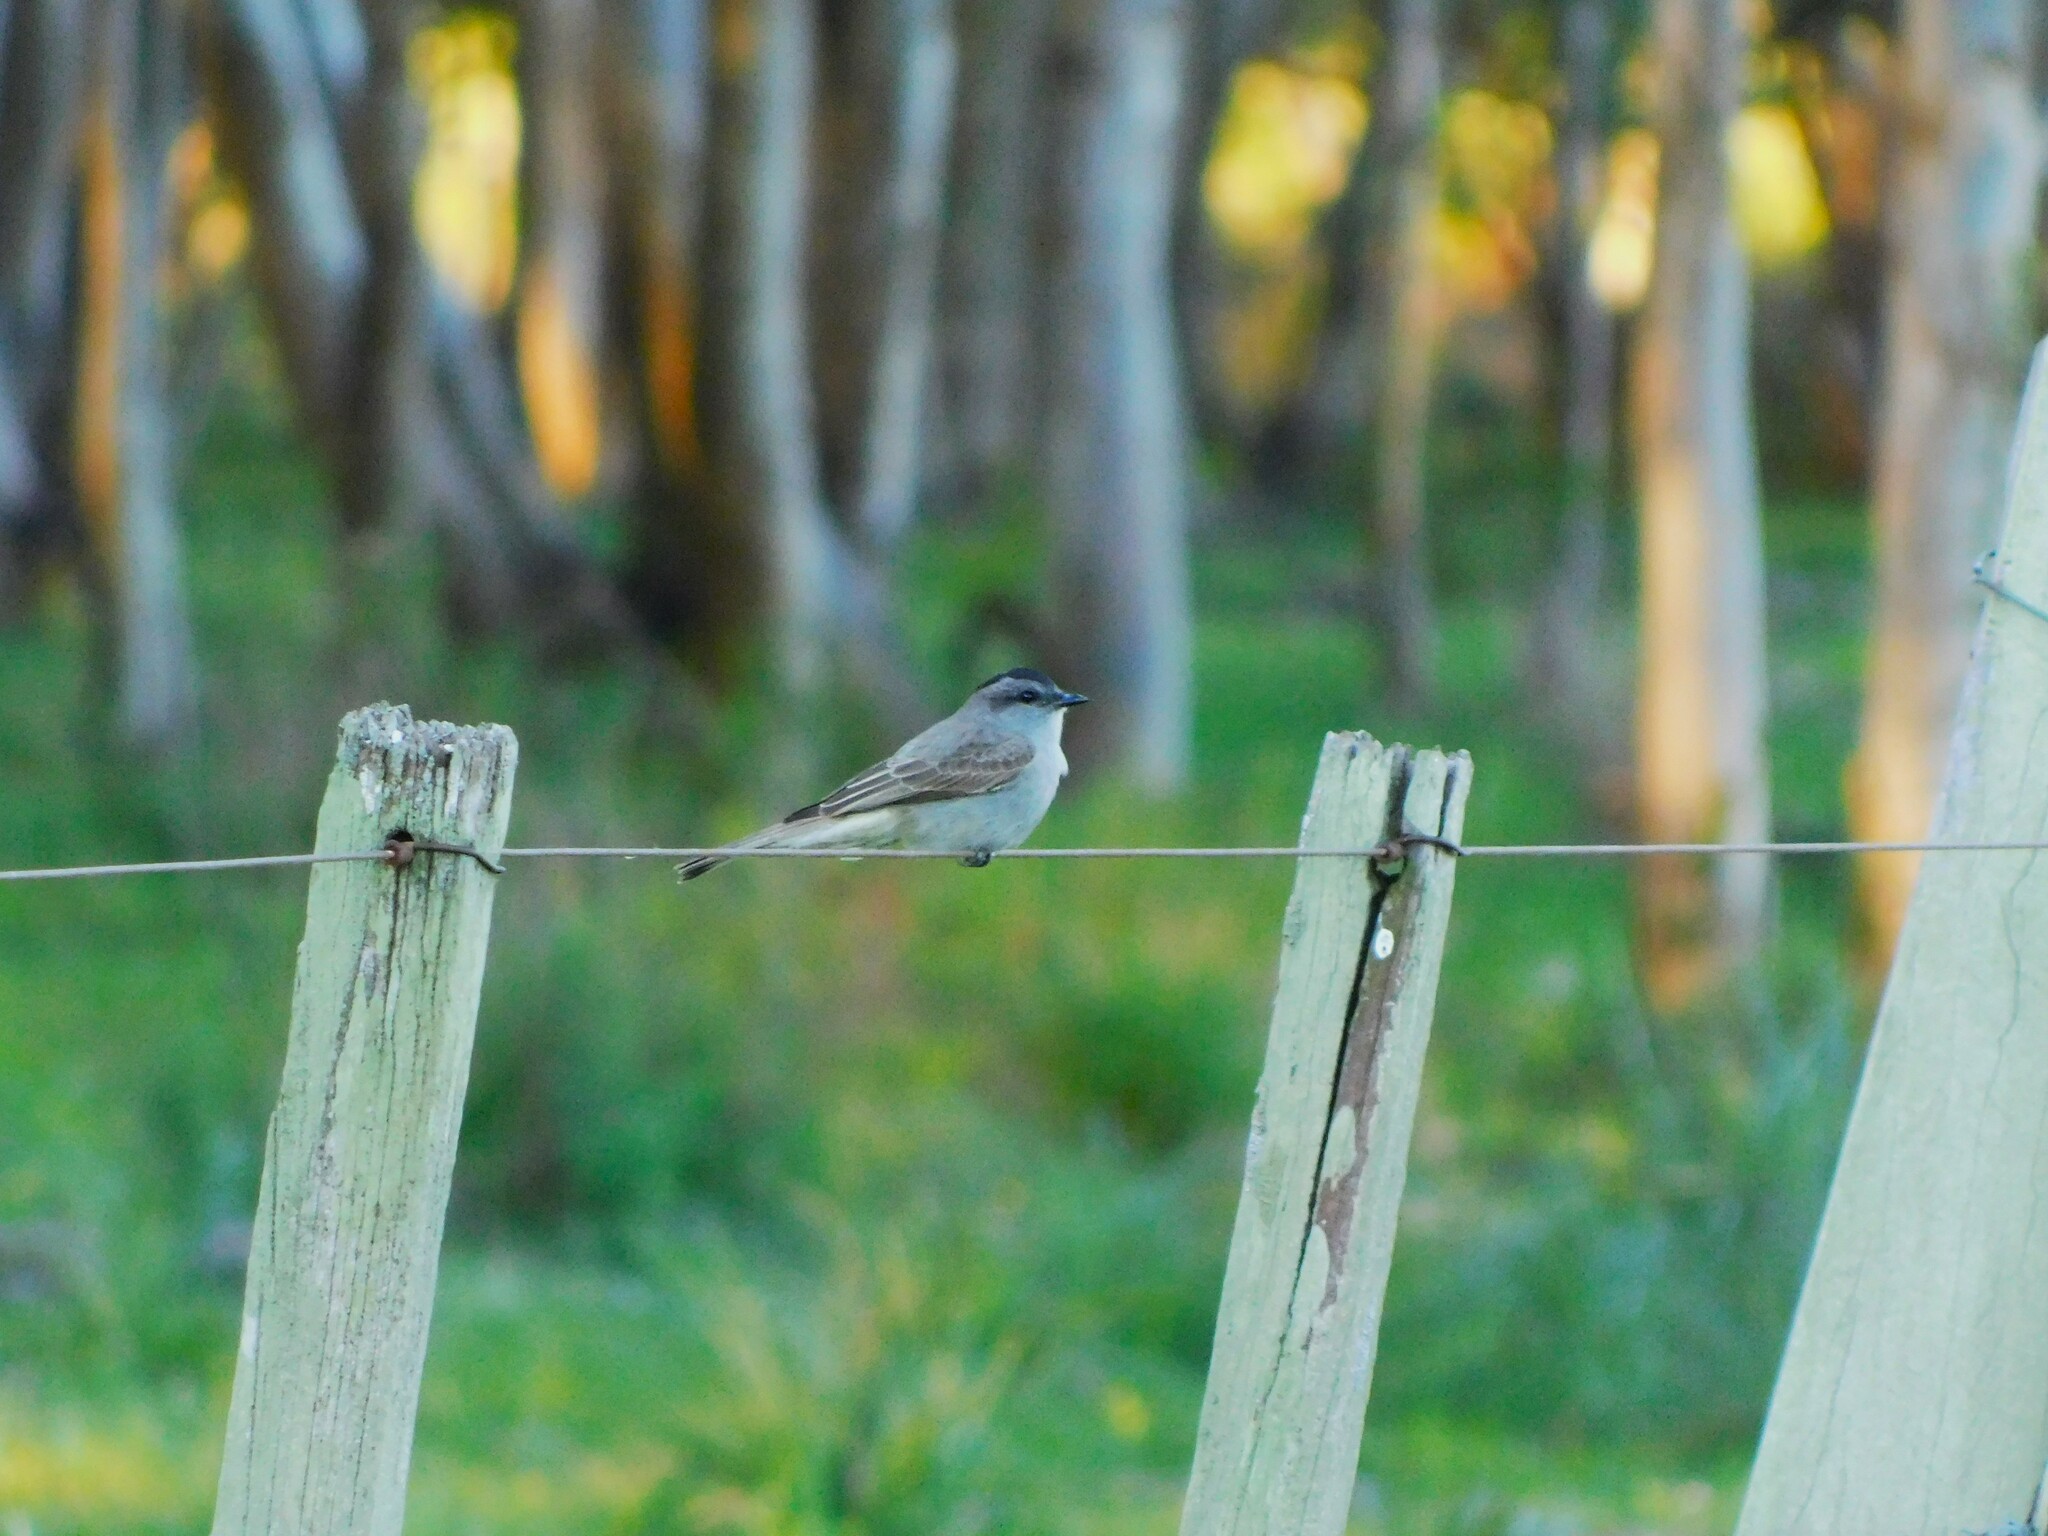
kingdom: Animalia
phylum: Chordata
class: Aves
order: Passeriformes
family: Tyrannidae
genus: Empidonomus
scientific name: Empidonomus aurantioatrocristatus
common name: Crowned slaty flycatcher
